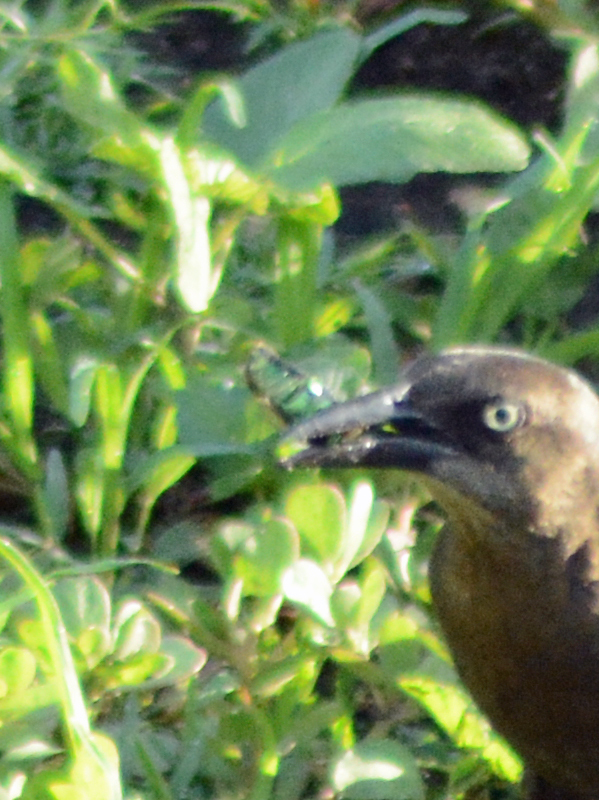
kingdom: Animalia
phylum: Arthropoda
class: Insecta
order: Coleoptera
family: Scarabaeidae
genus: Cotinis
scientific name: Cotinis mutabilis
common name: Figeater beetle
